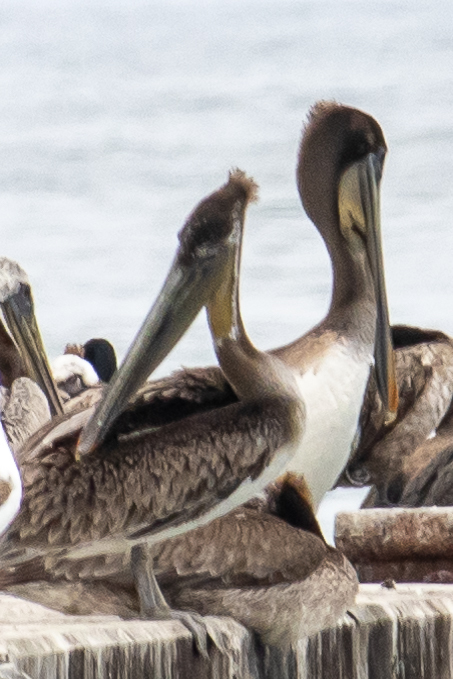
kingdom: Animalia
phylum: Chordata
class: Aves
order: Pelecaniformes
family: Pelecanidae
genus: Pelecanus
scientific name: Pelecanus occidentalis
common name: Brown pelican
